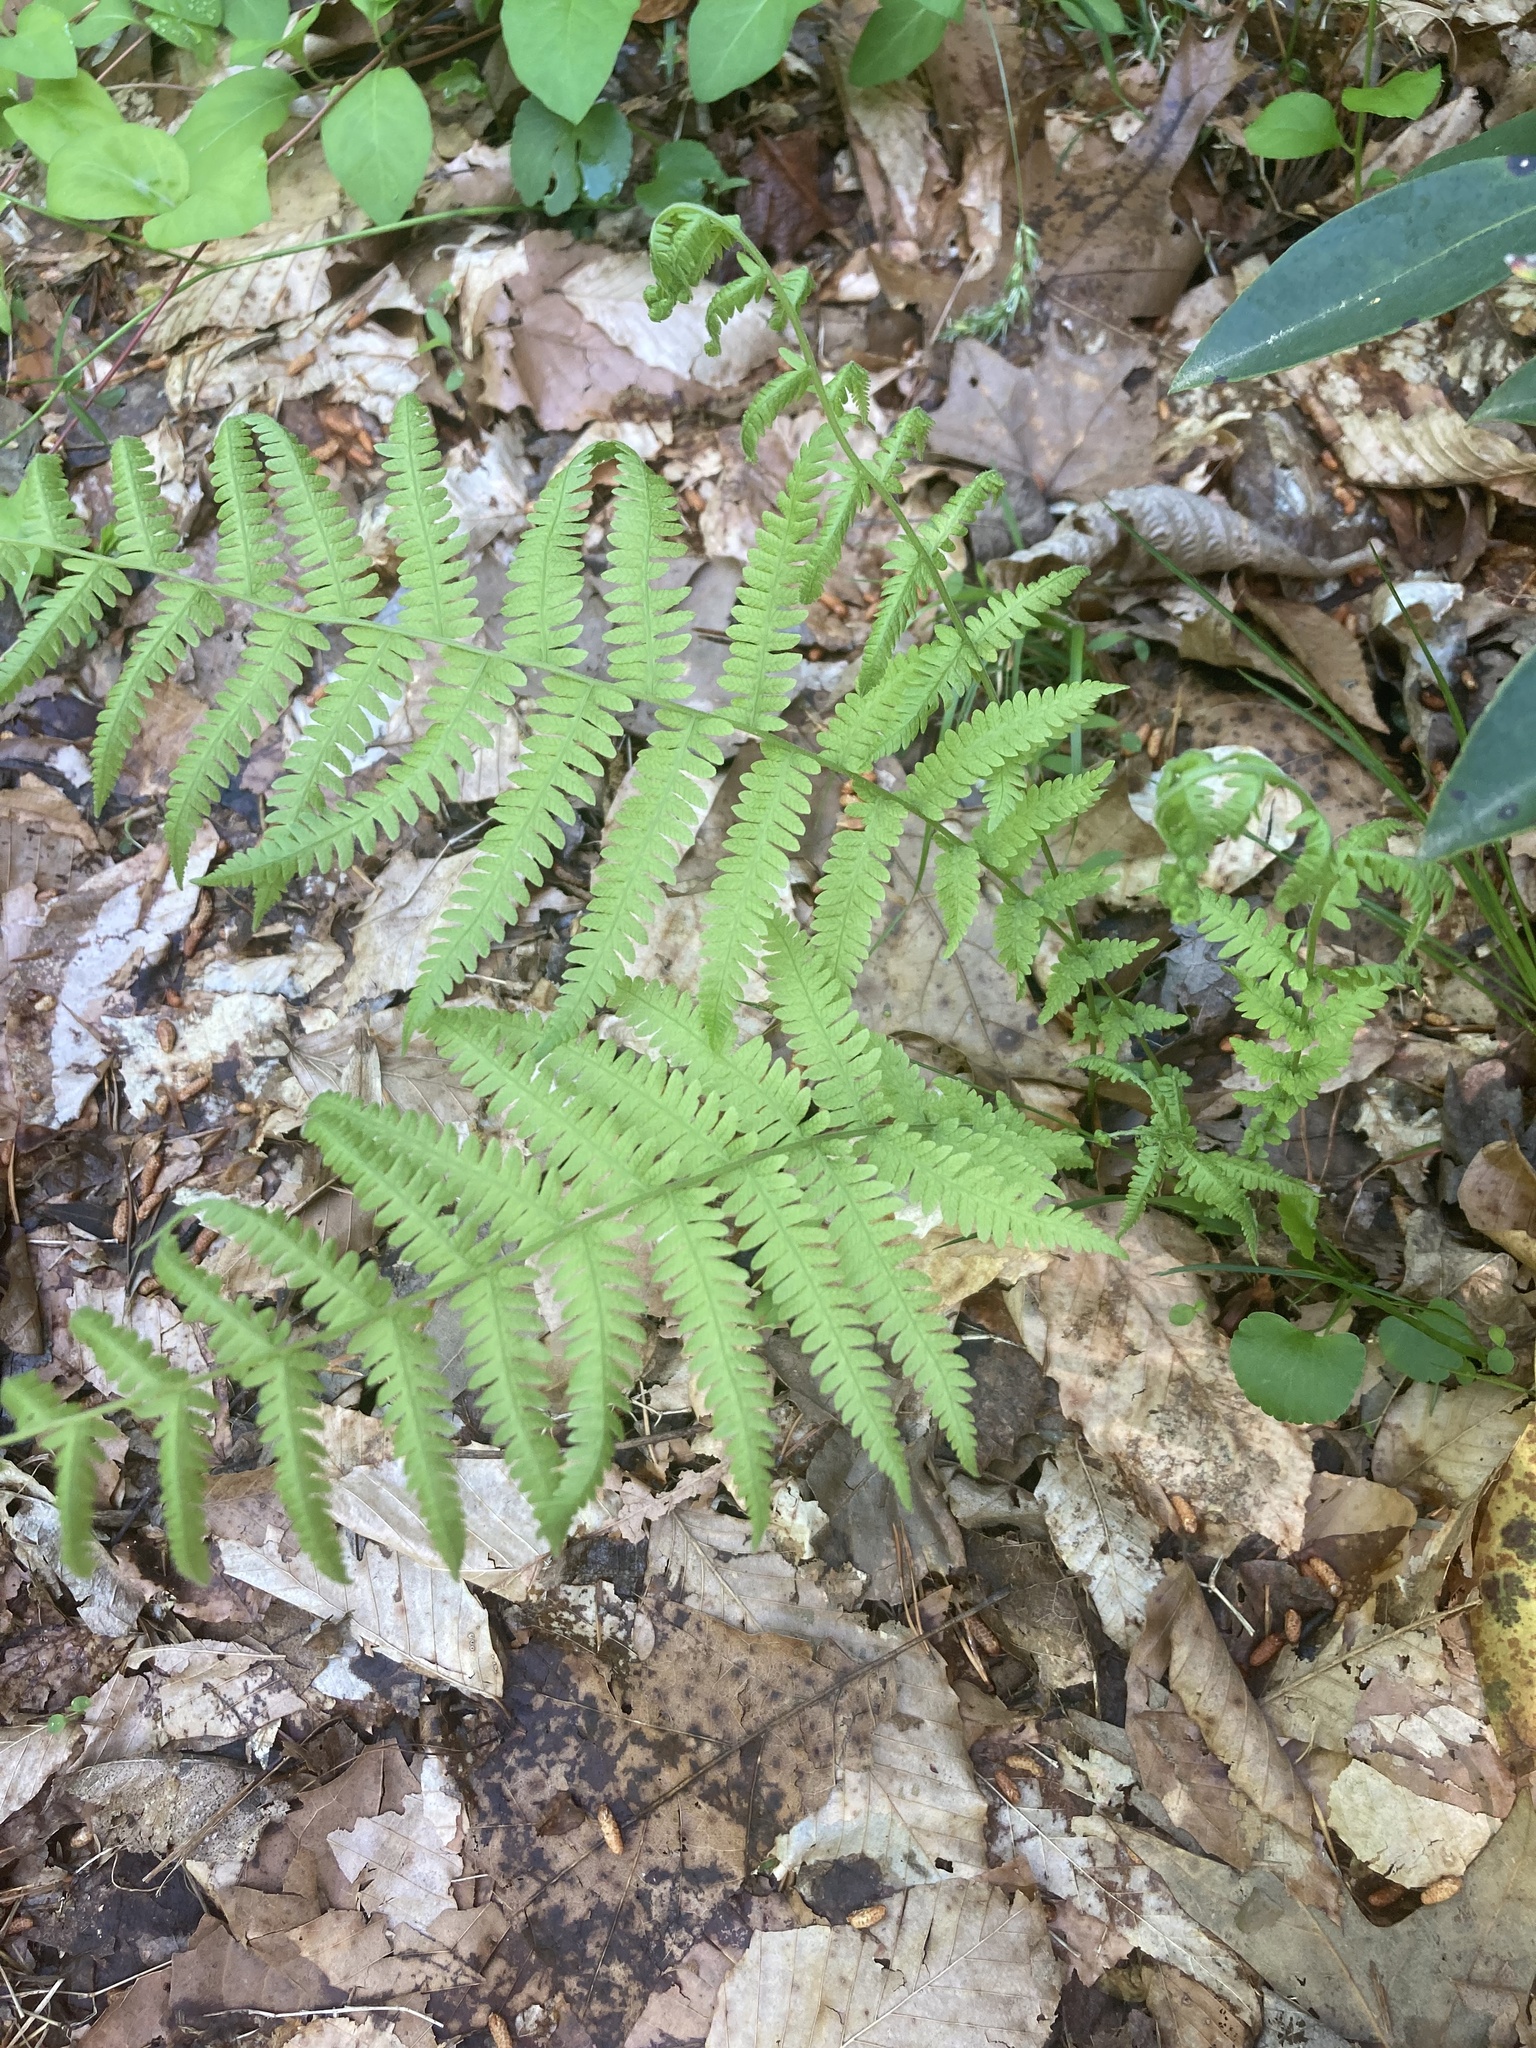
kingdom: Plantae
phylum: Tracheophyta
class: Polypodiopsida
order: Polypodiales
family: Thelypteridaceae
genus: Amauropelta
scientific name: Amauropelta noveboracensis
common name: New york fern
